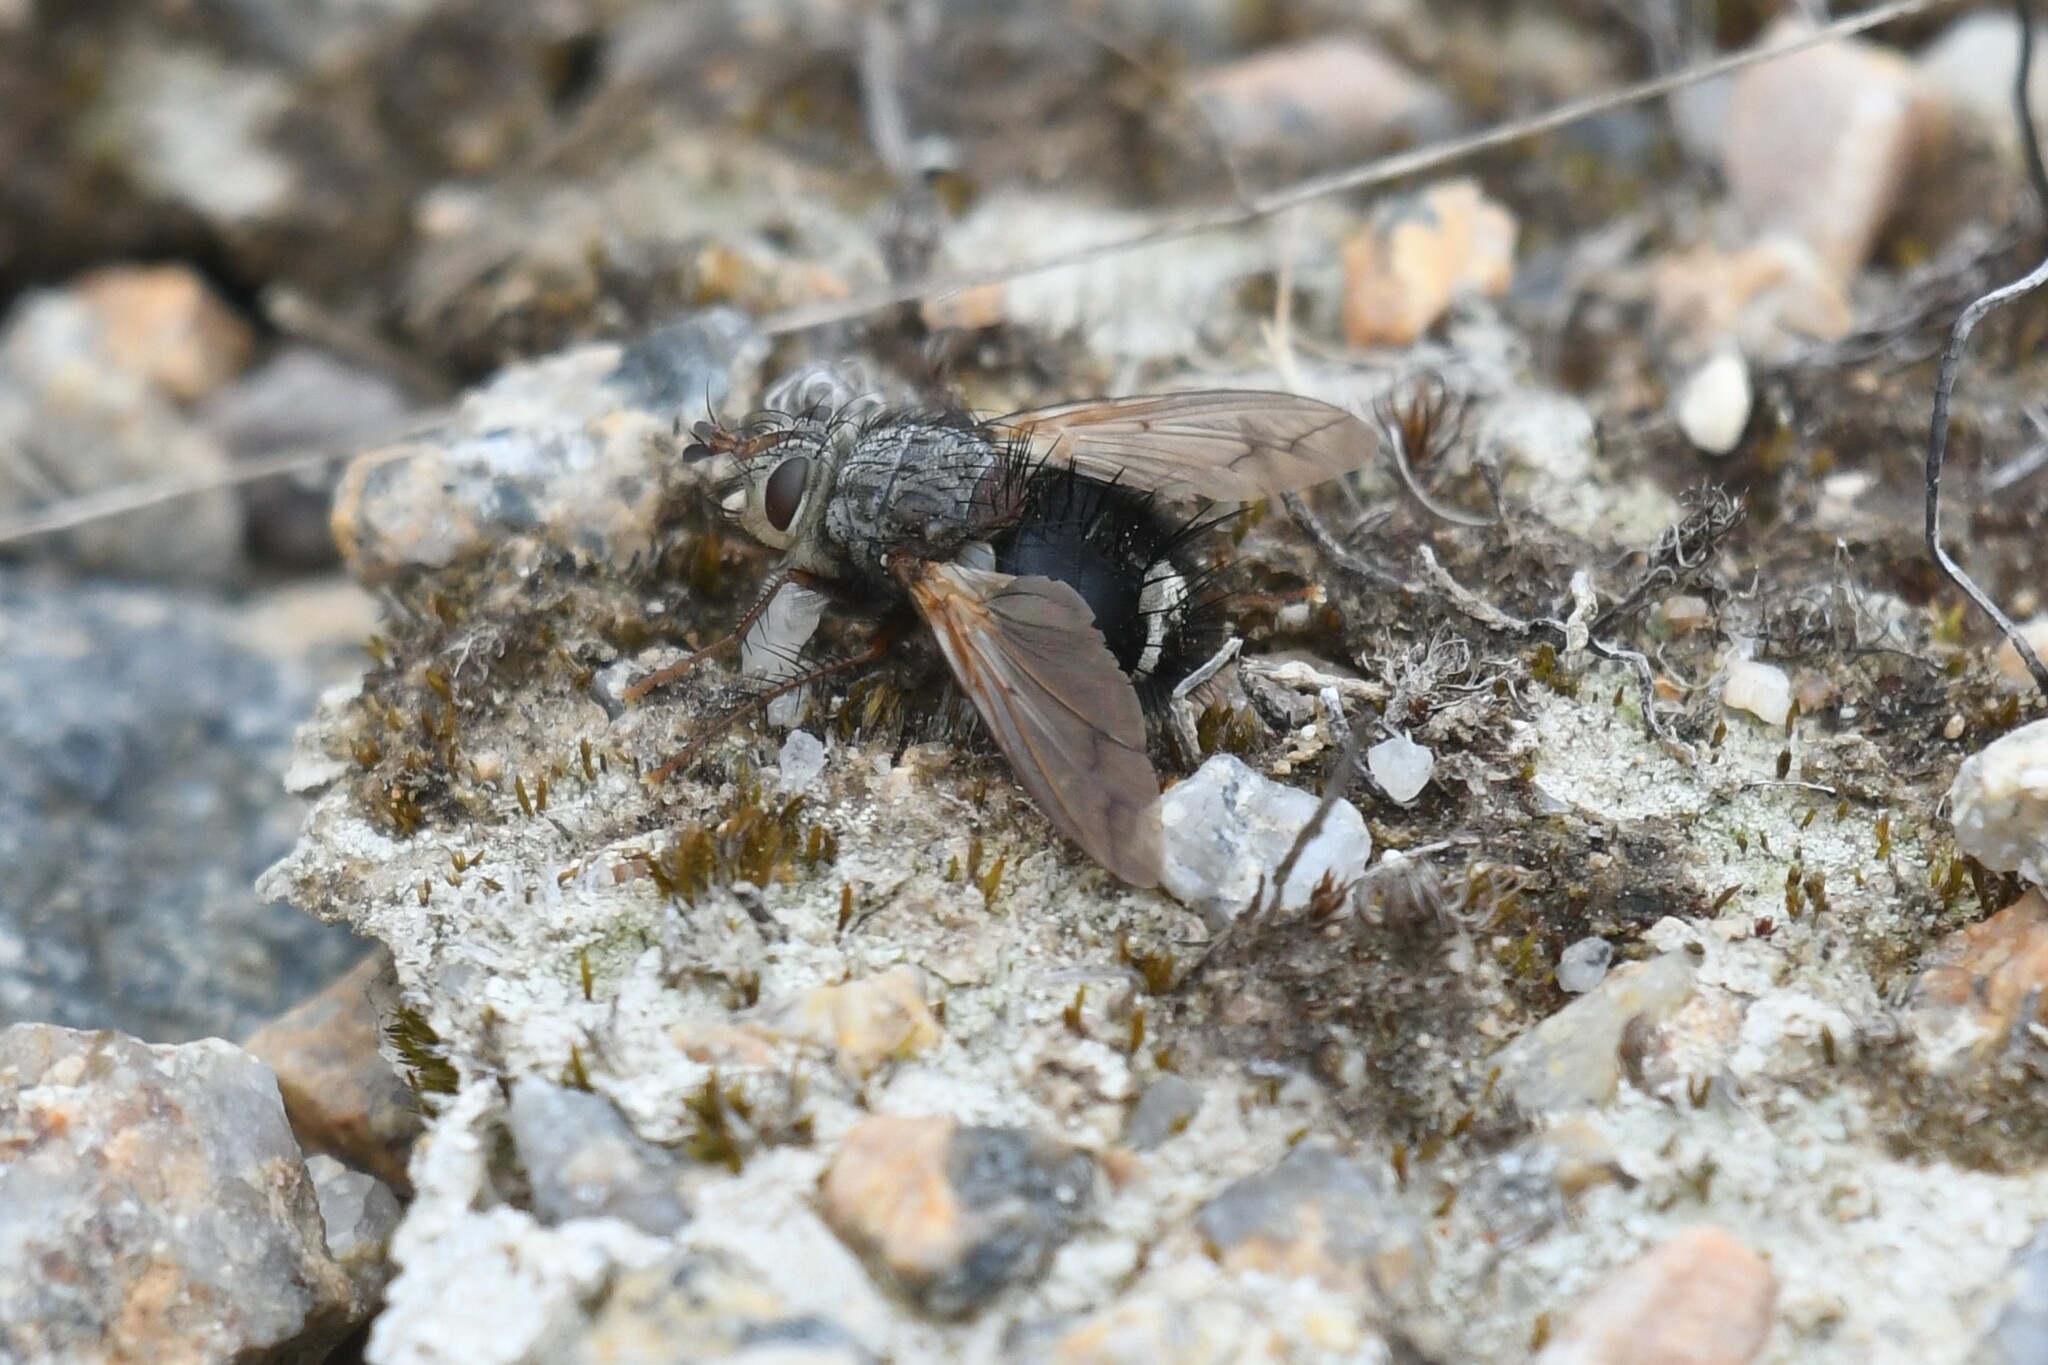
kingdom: Animalia
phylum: Arthropoda
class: Insecta
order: Diptera
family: Tachinidae
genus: Epalpus
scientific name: Epalpus signifer
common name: Early tachinid fly
